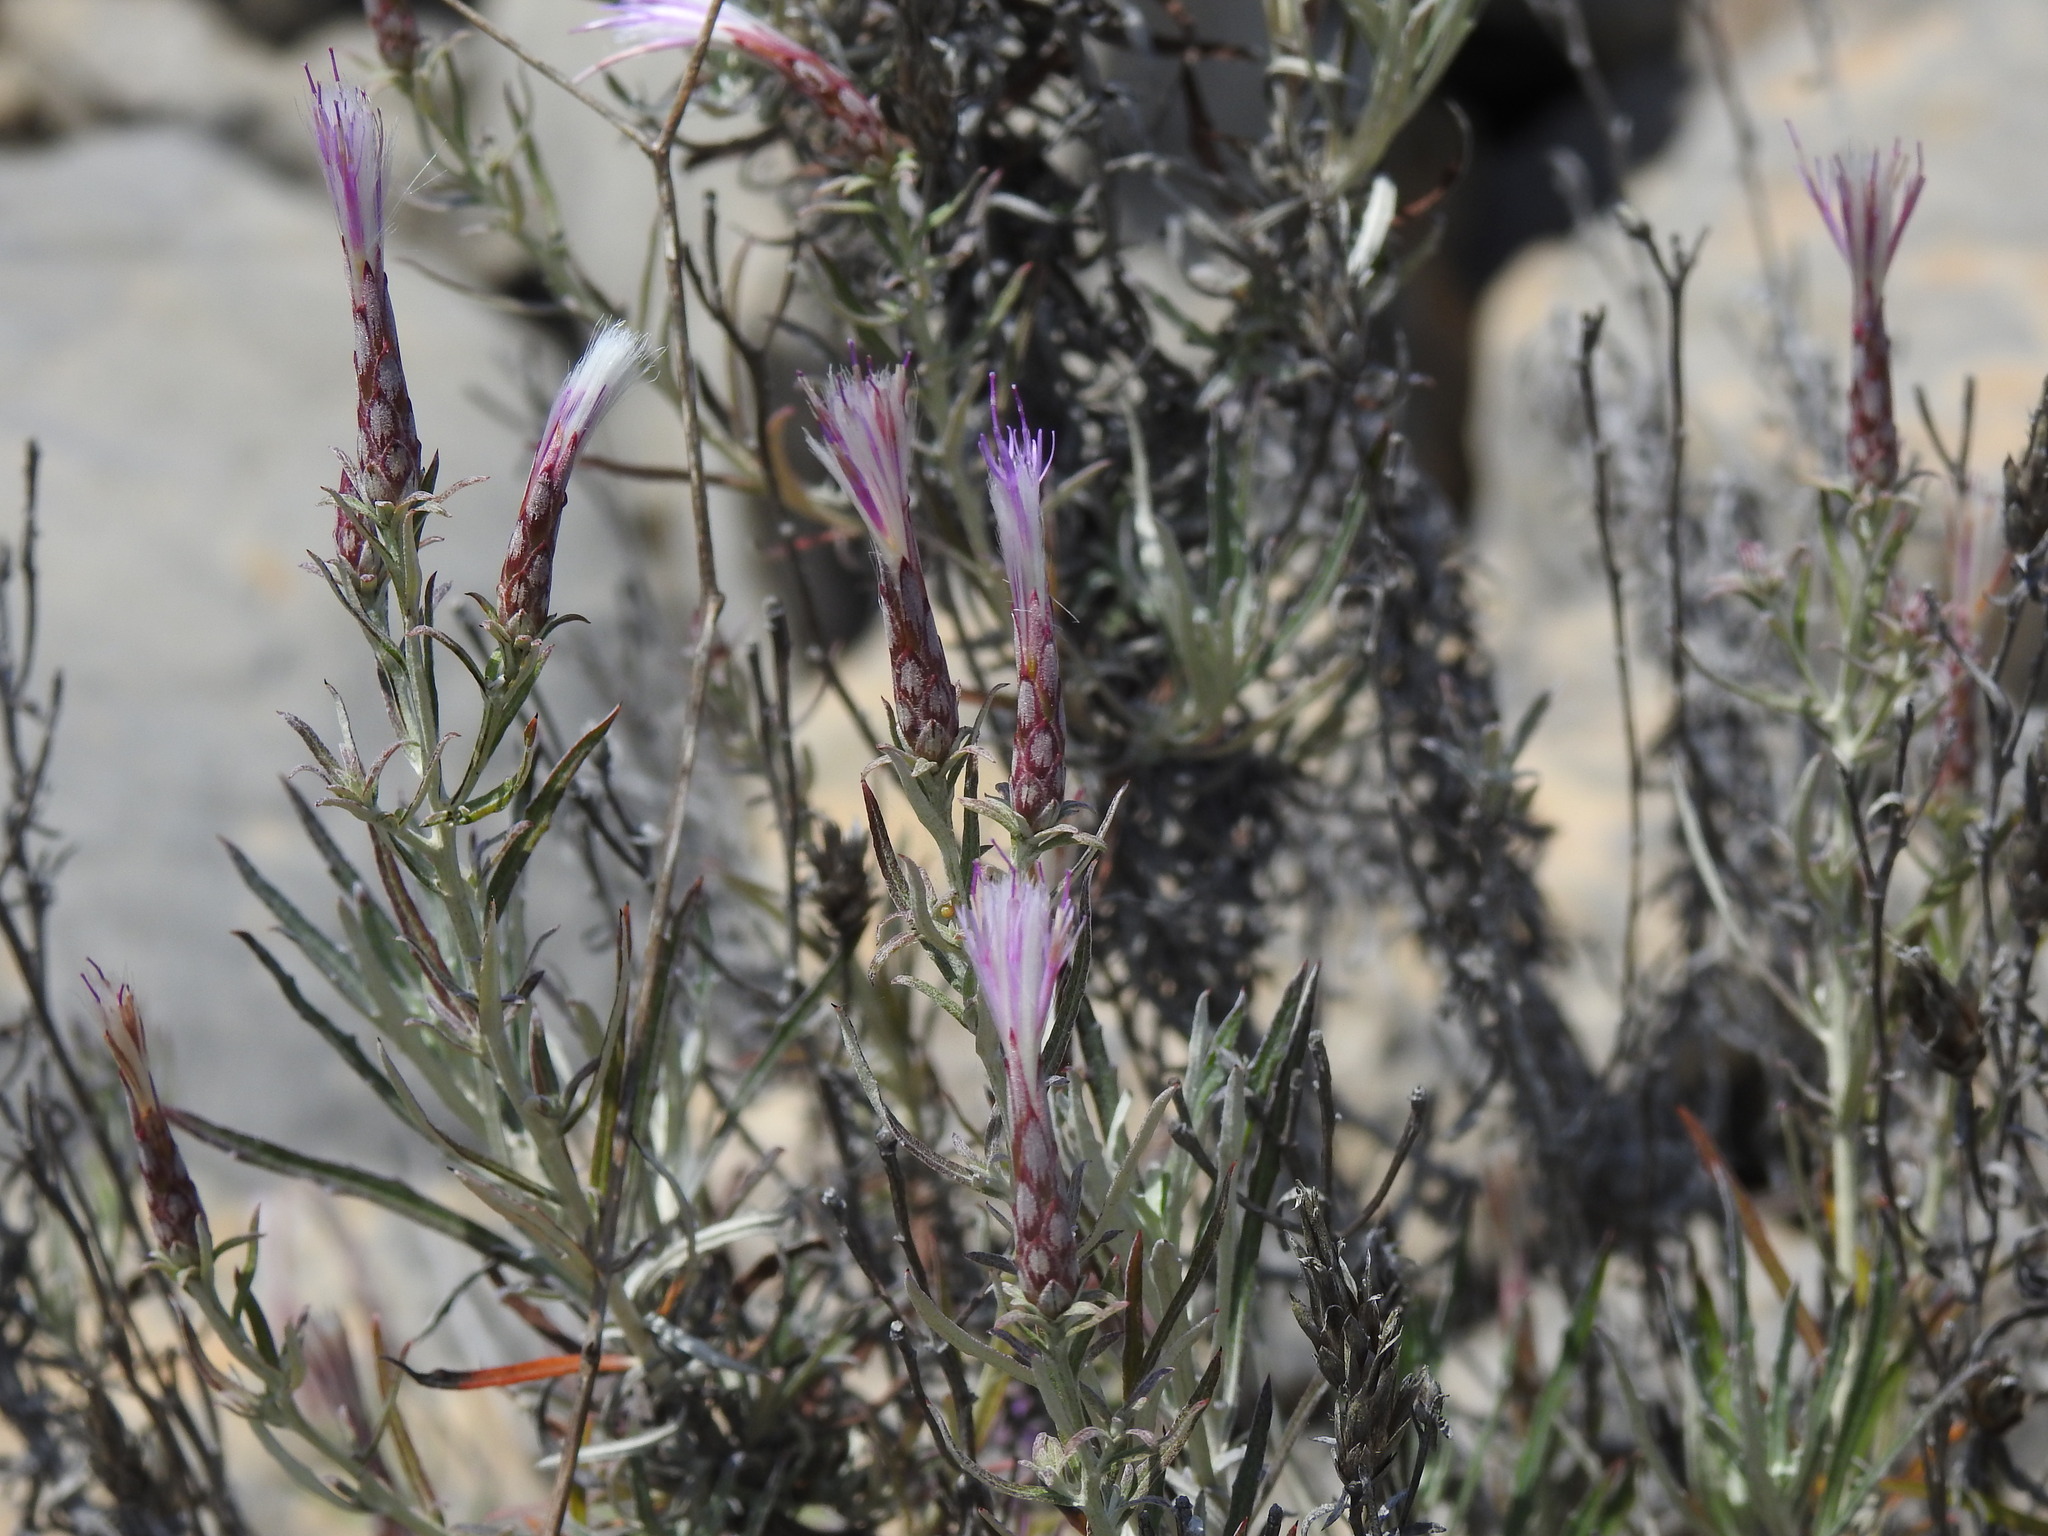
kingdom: Plantae
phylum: Tracheophyta
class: Magnoliopsida
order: Asterales
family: Asteraceae
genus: Staehelina
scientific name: Staehelina dubia
